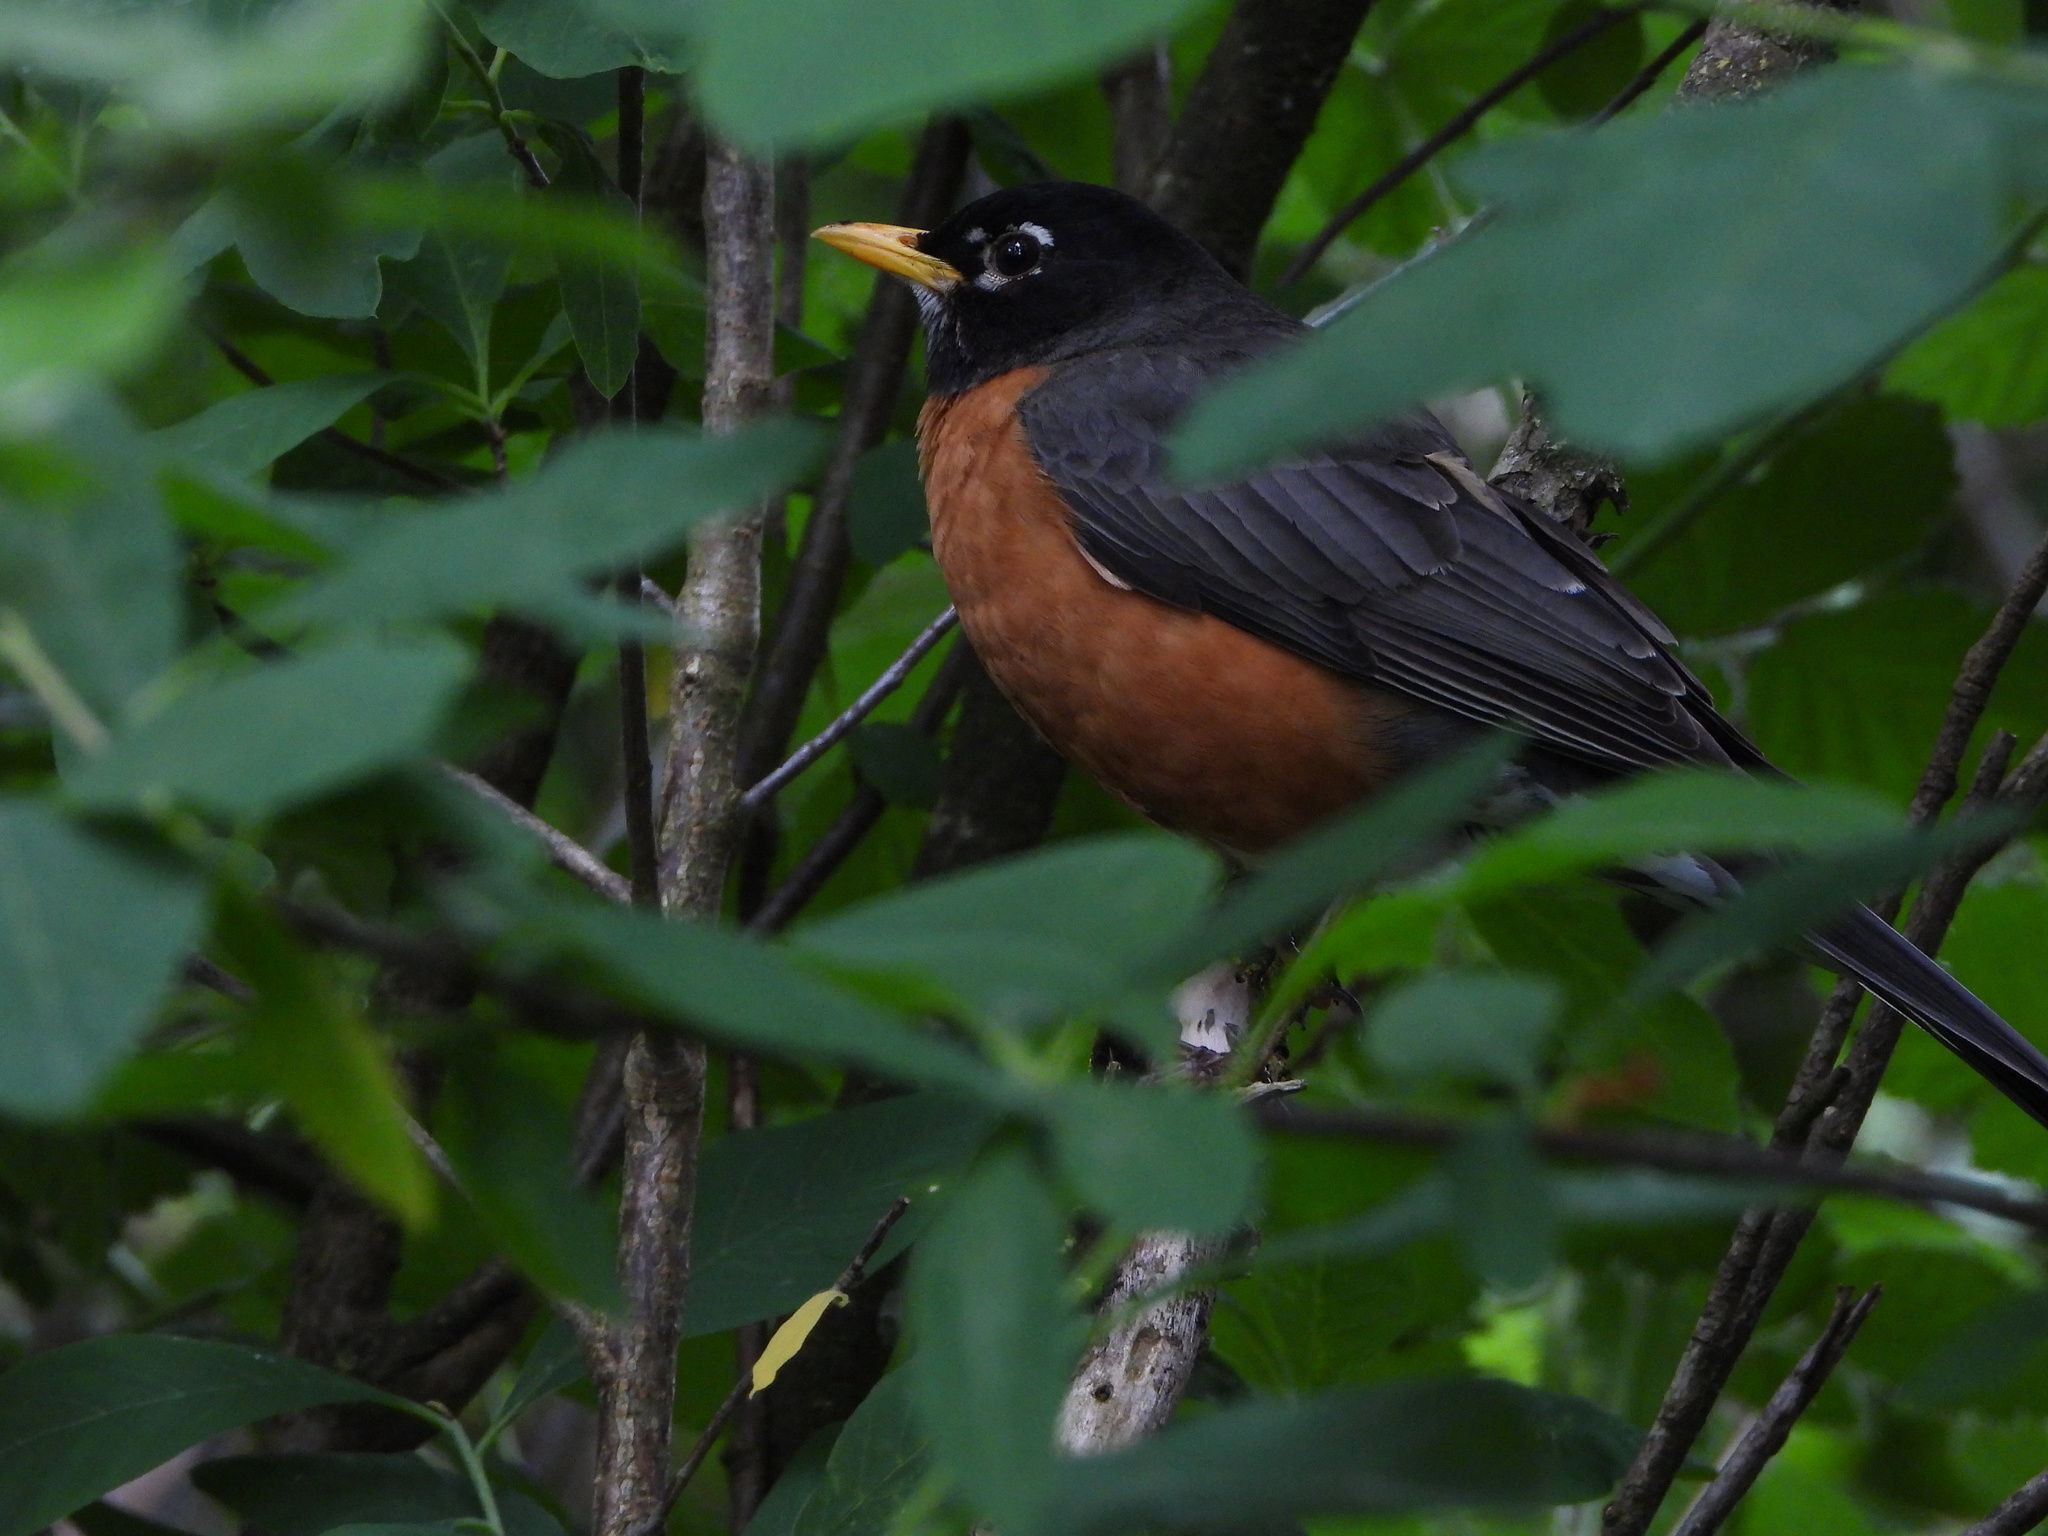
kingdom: Animalia
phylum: Chordata
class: Aves
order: Passeriformes
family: Turdidae
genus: Turdus
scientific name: Turdus migratorius
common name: American robin
